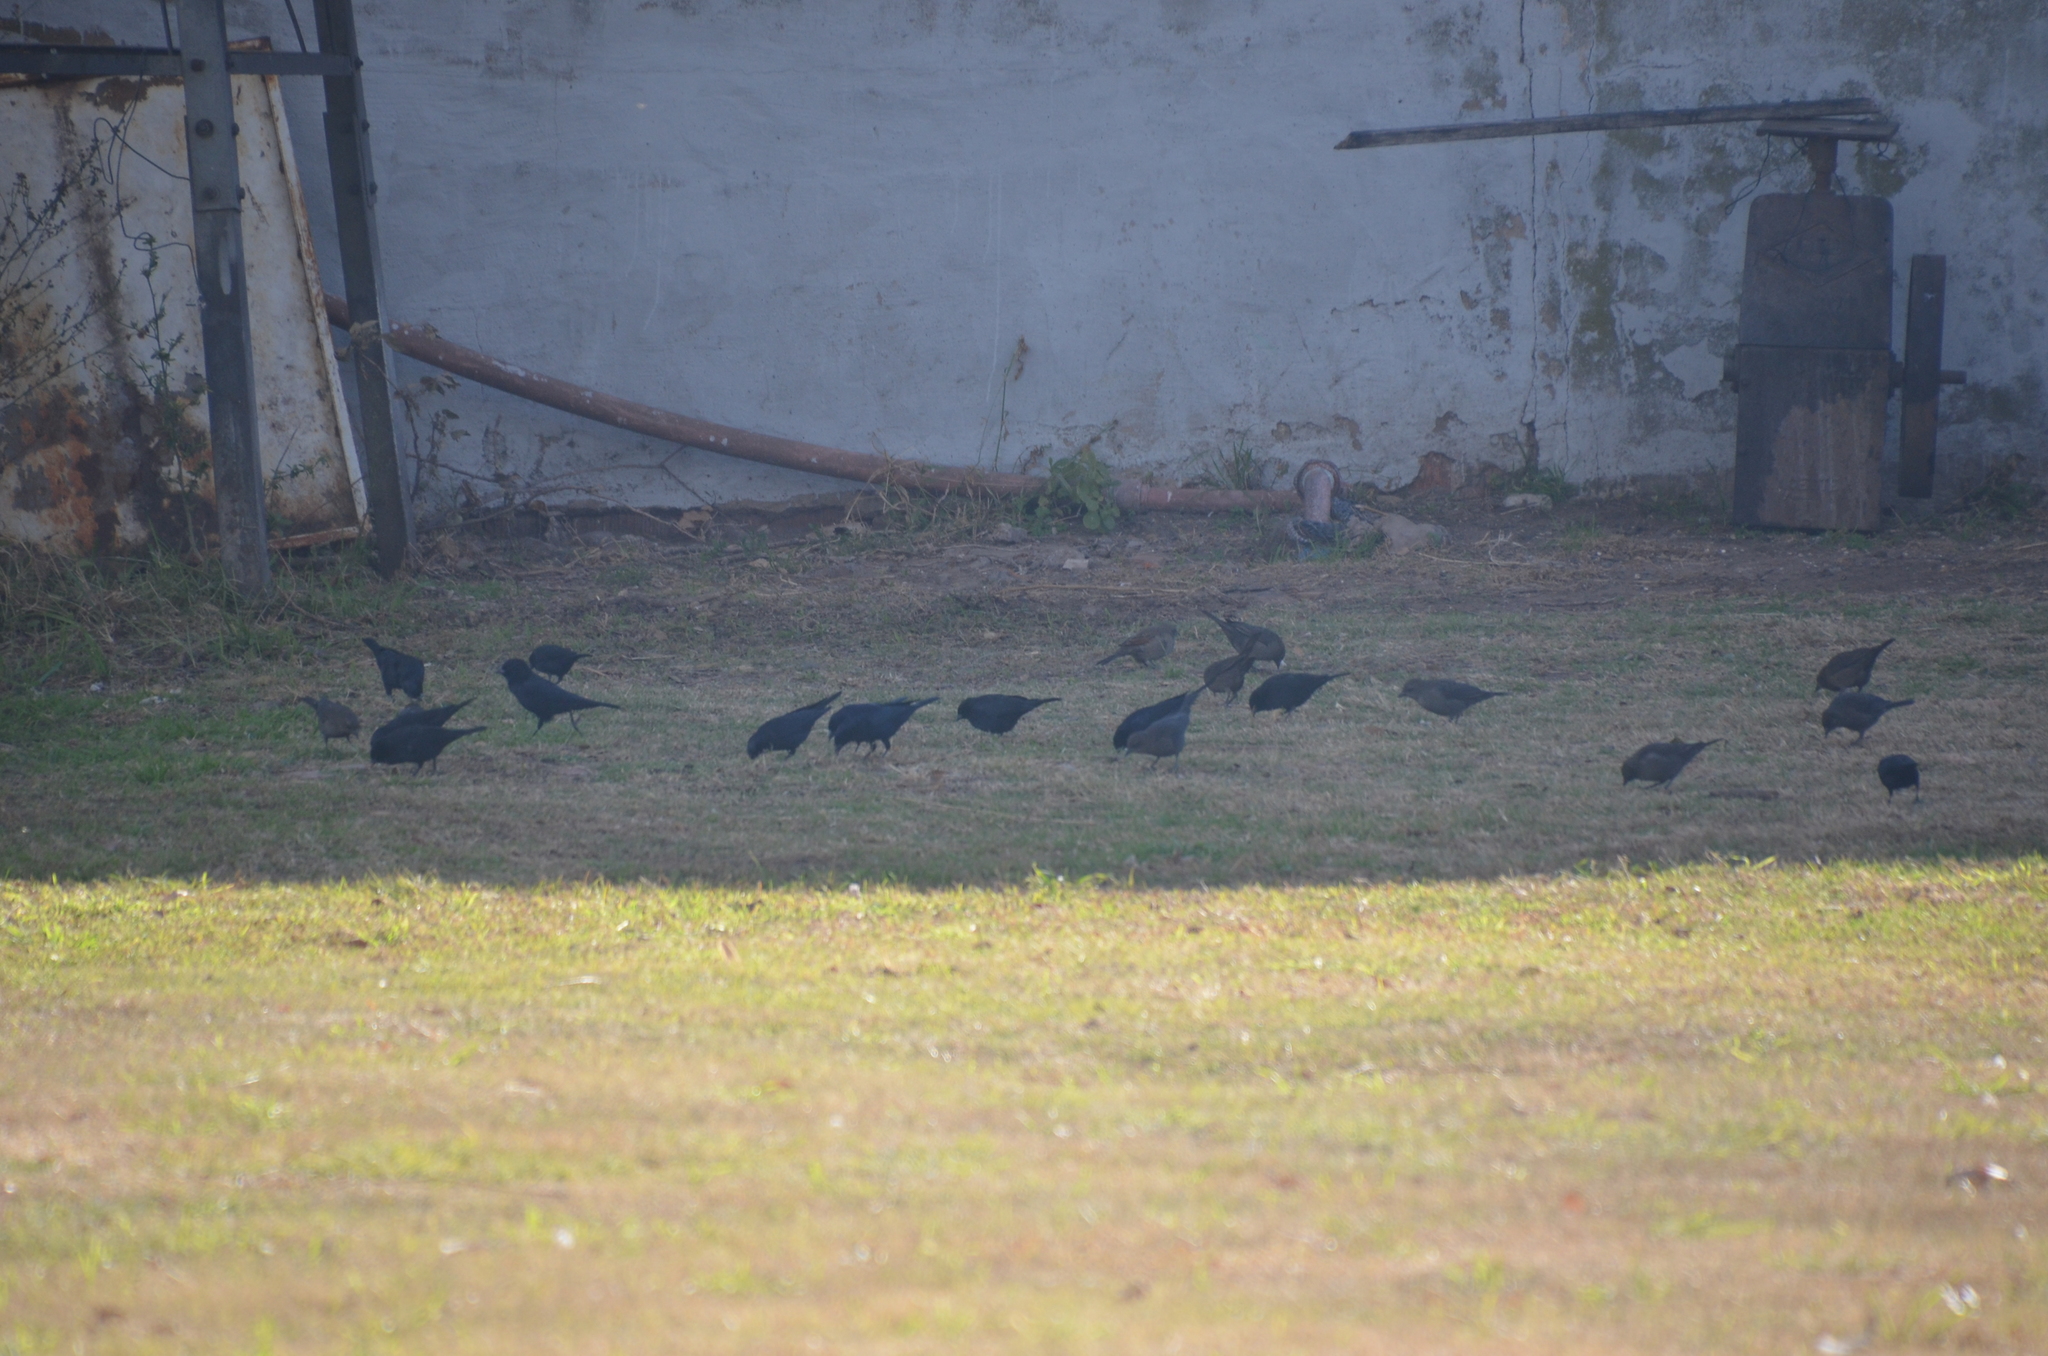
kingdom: Animalia
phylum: Chordata
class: Aves
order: Passeriformes
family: Icteridae
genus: Molothrus
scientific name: Molothrus bonariensis
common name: Shiny cowbird
